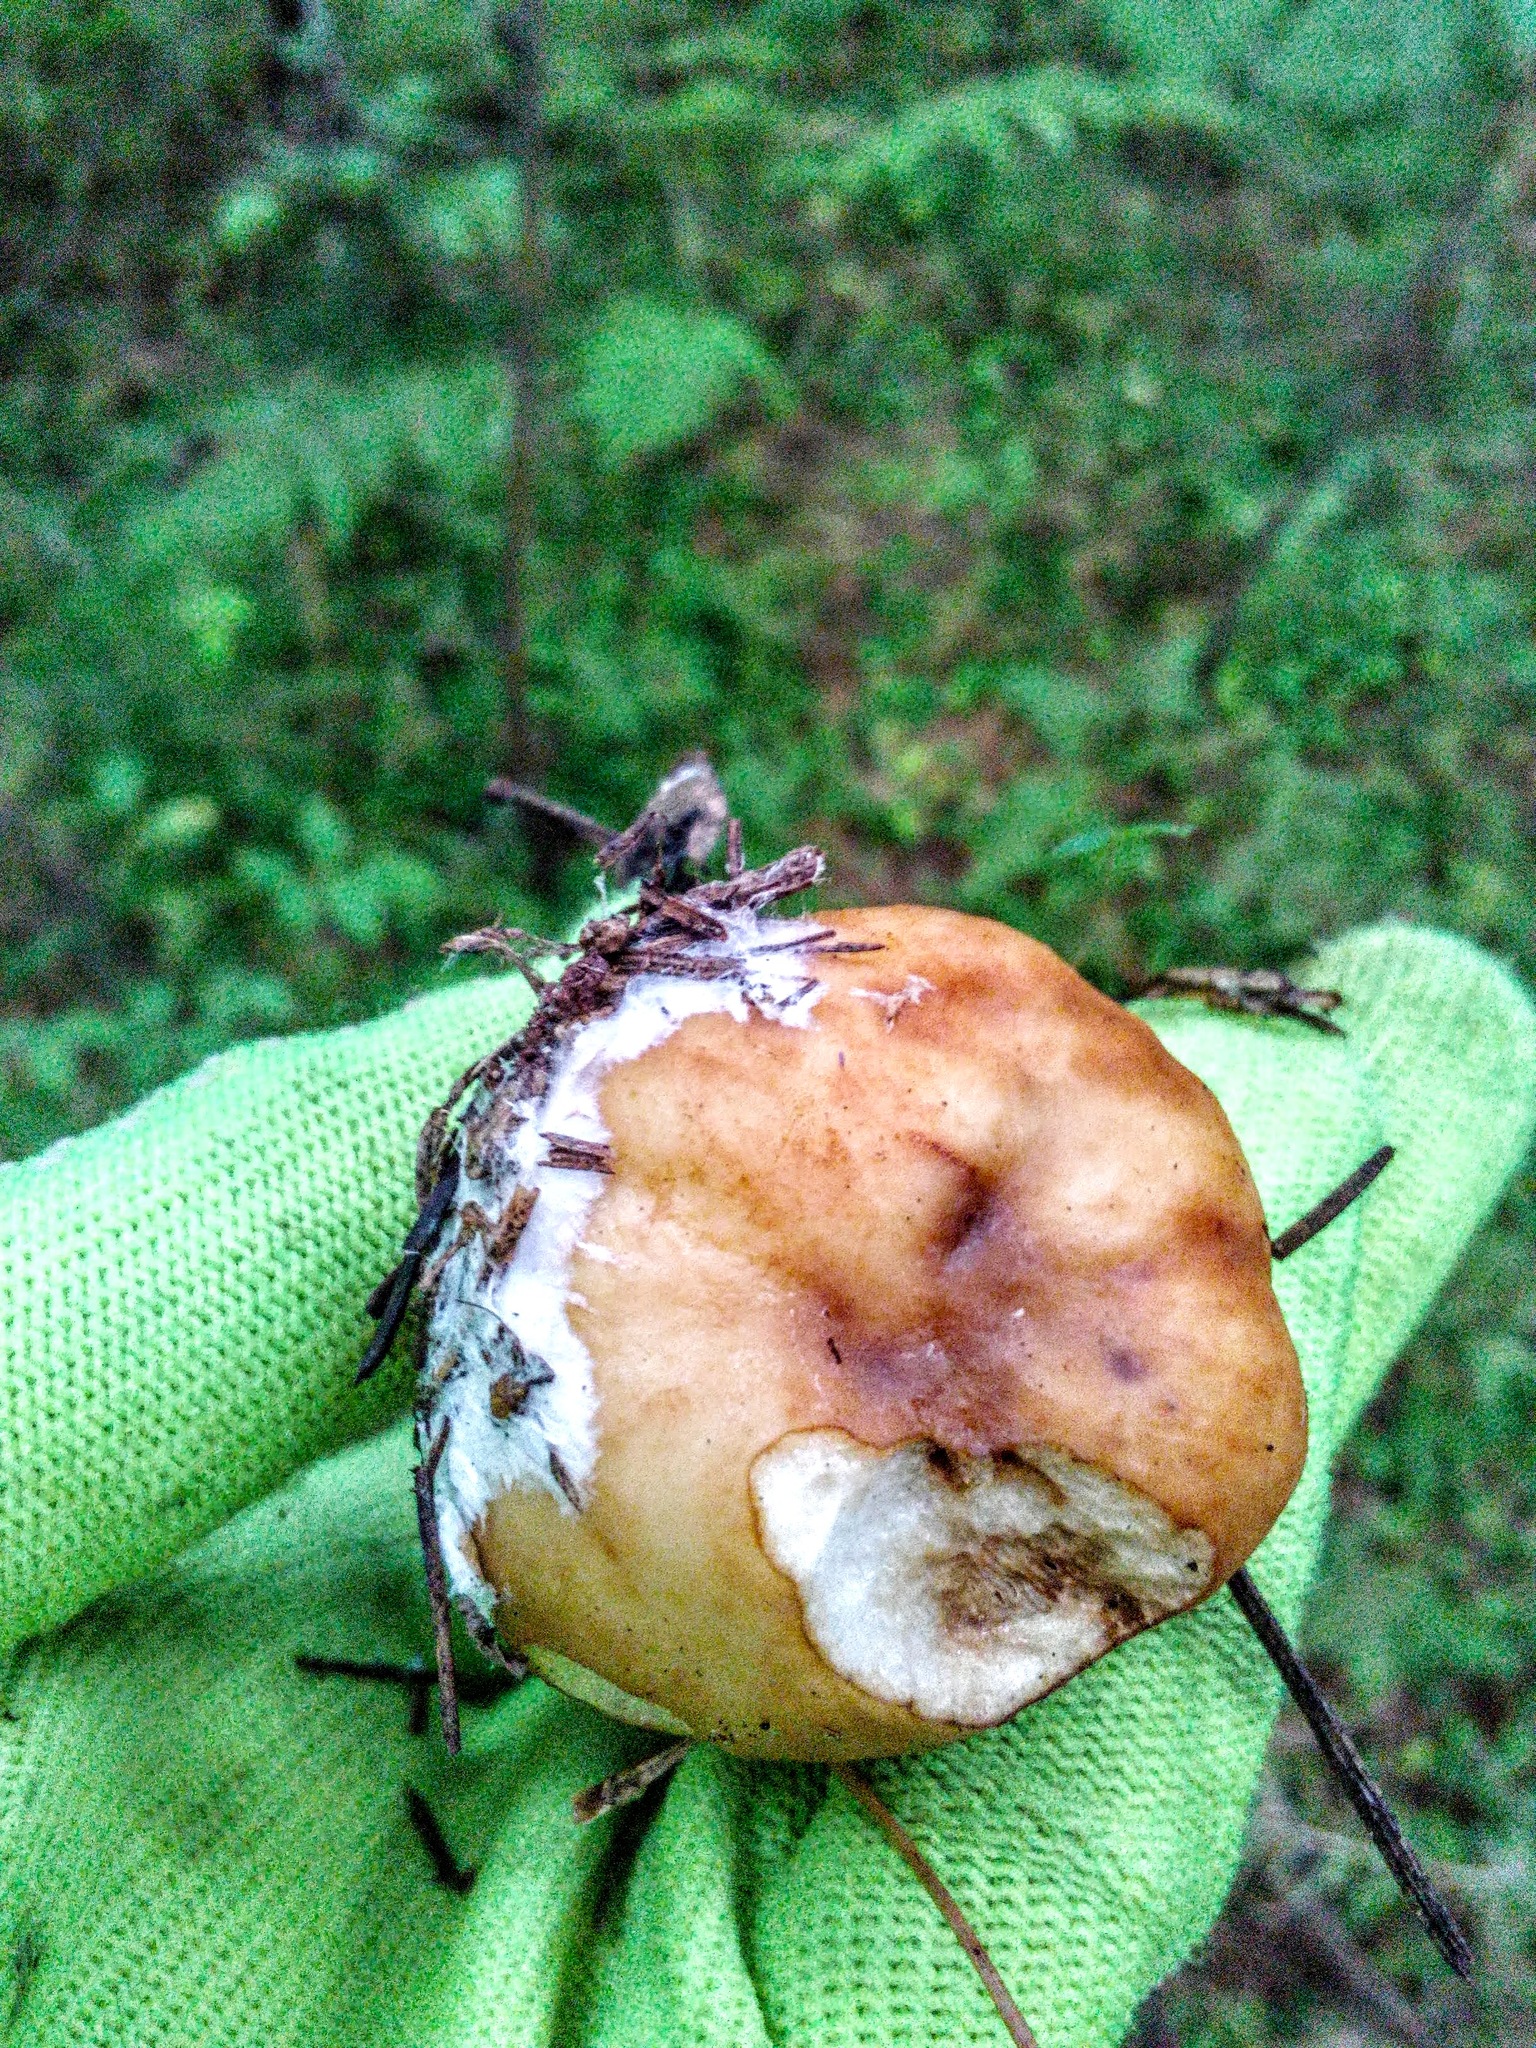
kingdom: Fungi
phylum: Basidiomycota
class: Agaricomycetes
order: Russulales
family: Russulaceae
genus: Russula
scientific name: Russula foetens
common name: Foetid russula
